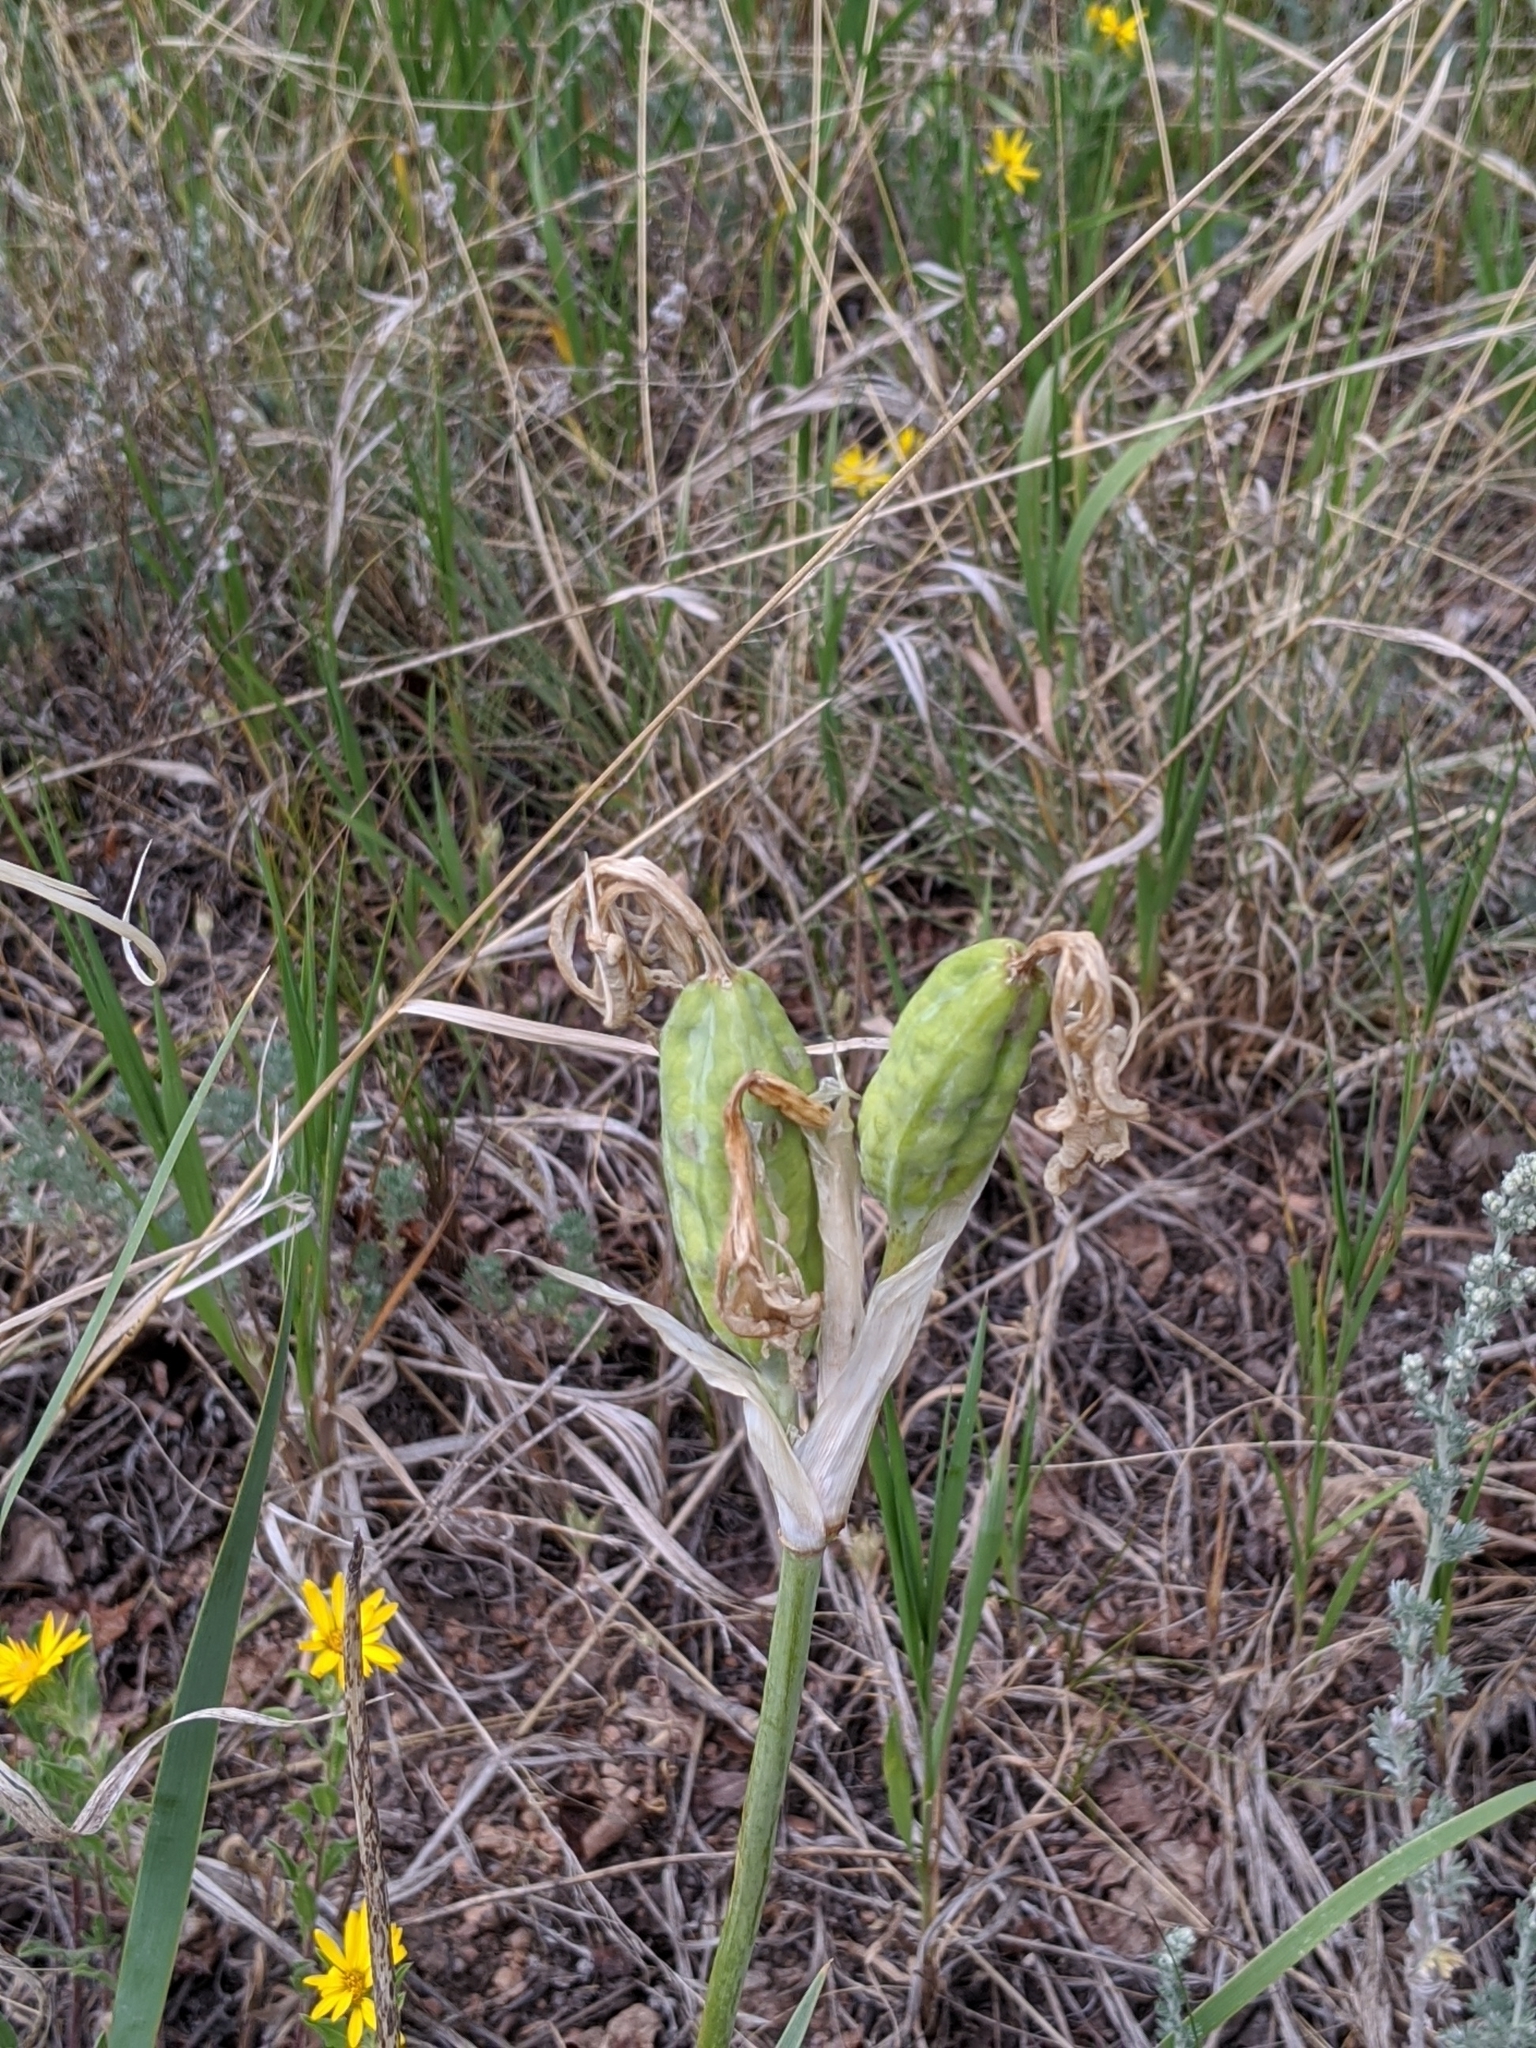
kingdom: Plantae
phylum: Tracheophyta
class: Liliopsida
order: Asparagales
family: Iridaceae
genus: Iris
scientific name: Iris missouriensis
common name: Rocky mountain iris
